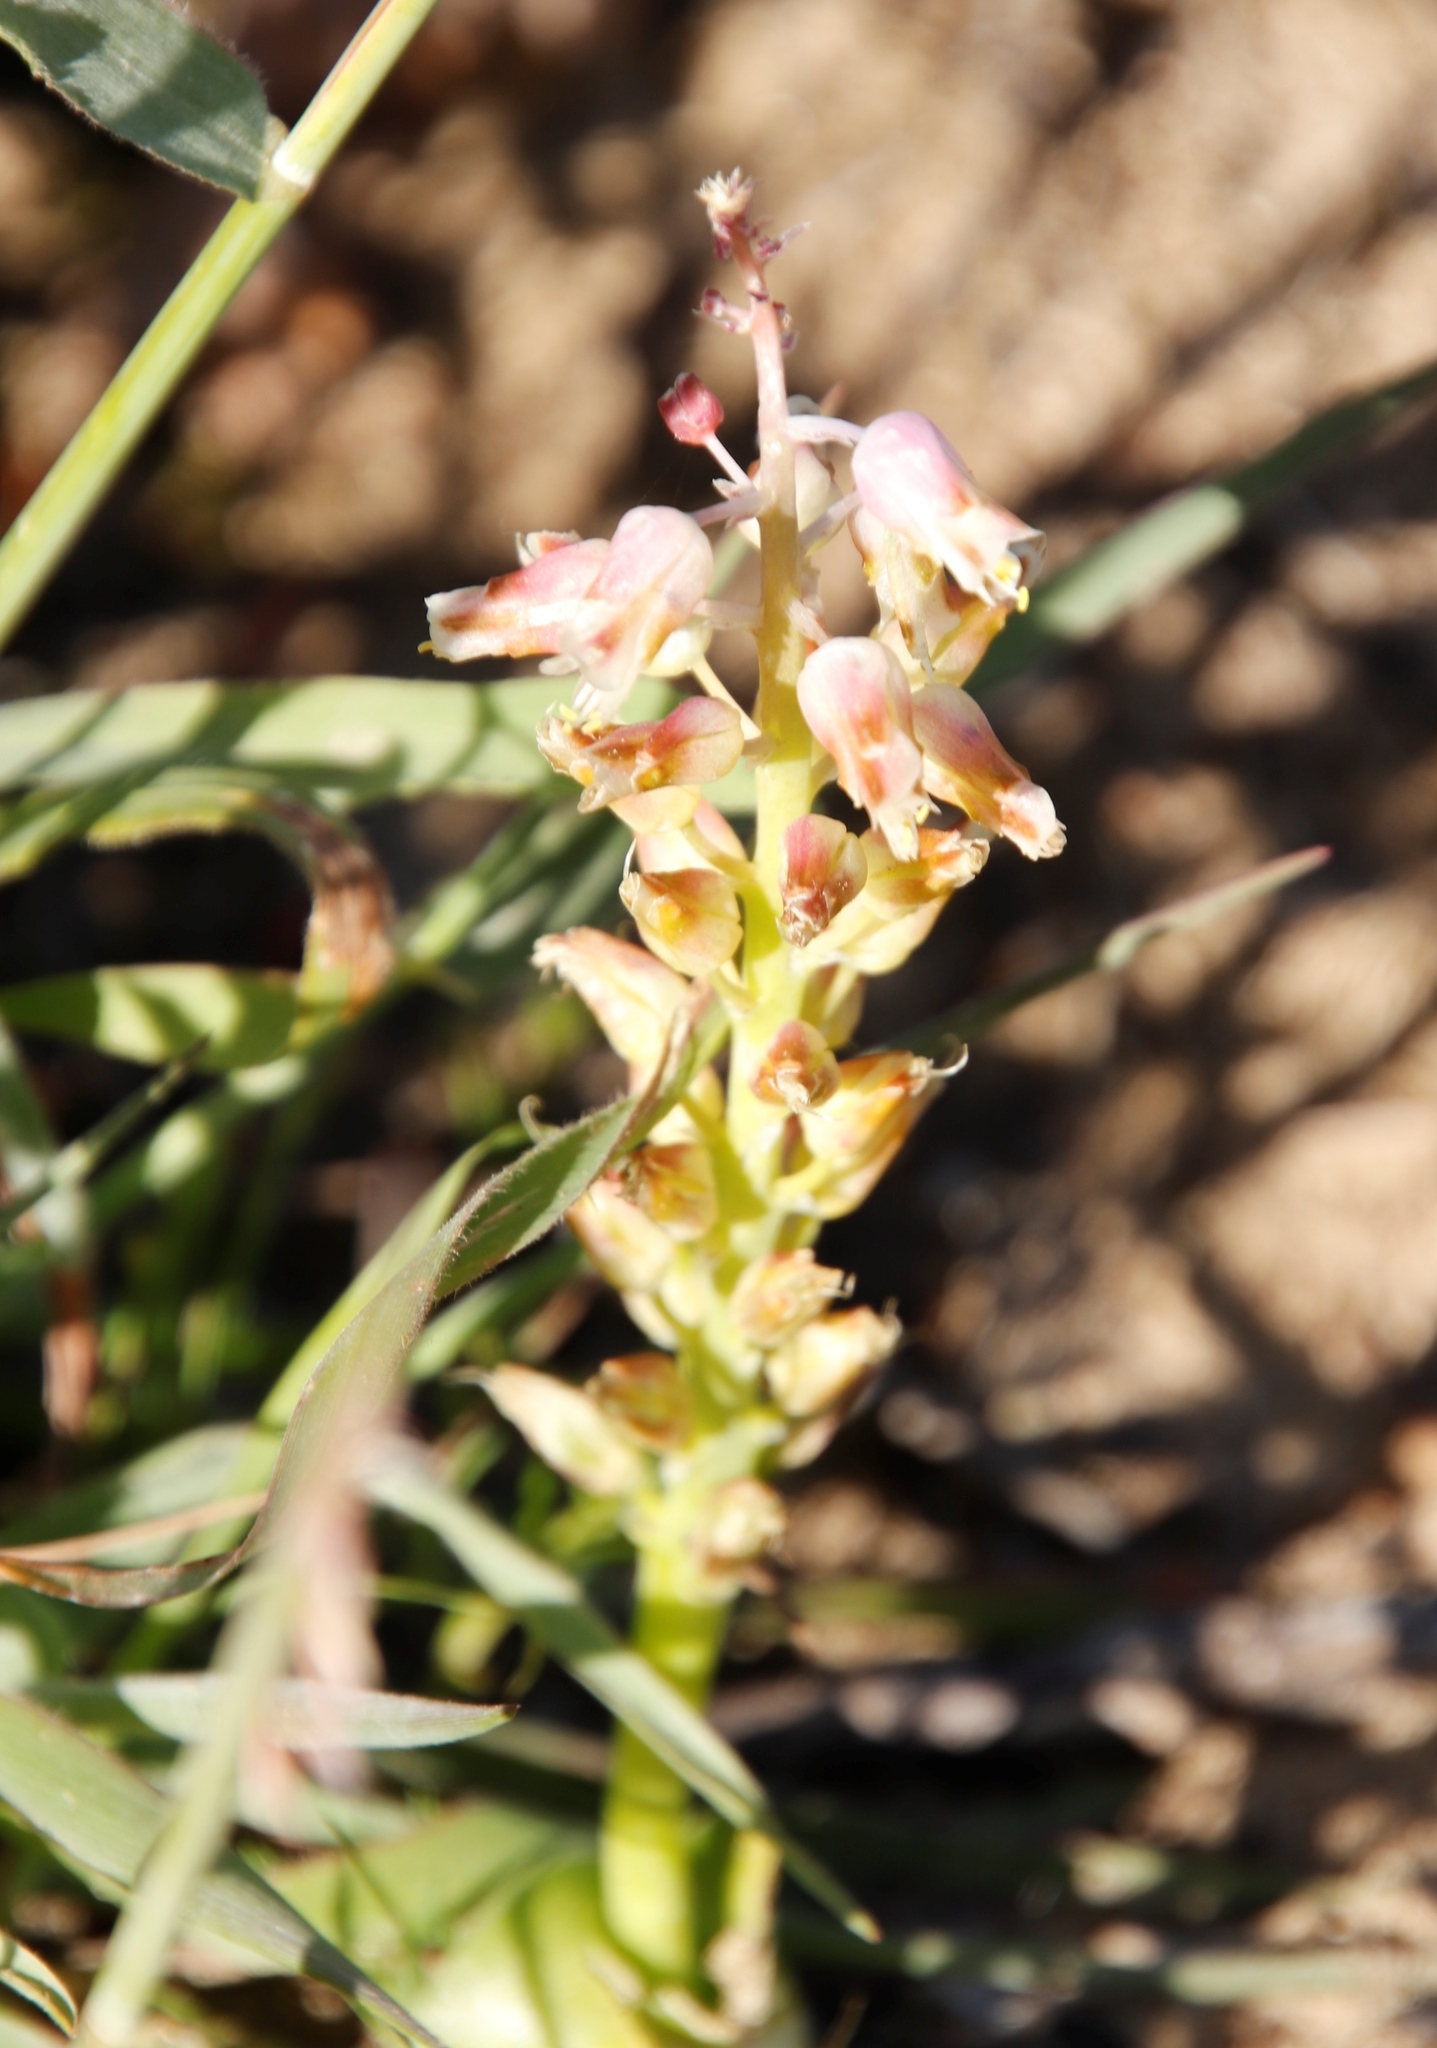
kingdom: Plantae
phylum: Tracheophyta
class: Liliopsida
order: Asparagales
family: Asparagaceae
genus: Lachenalia
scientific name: Lachenalia pallida
